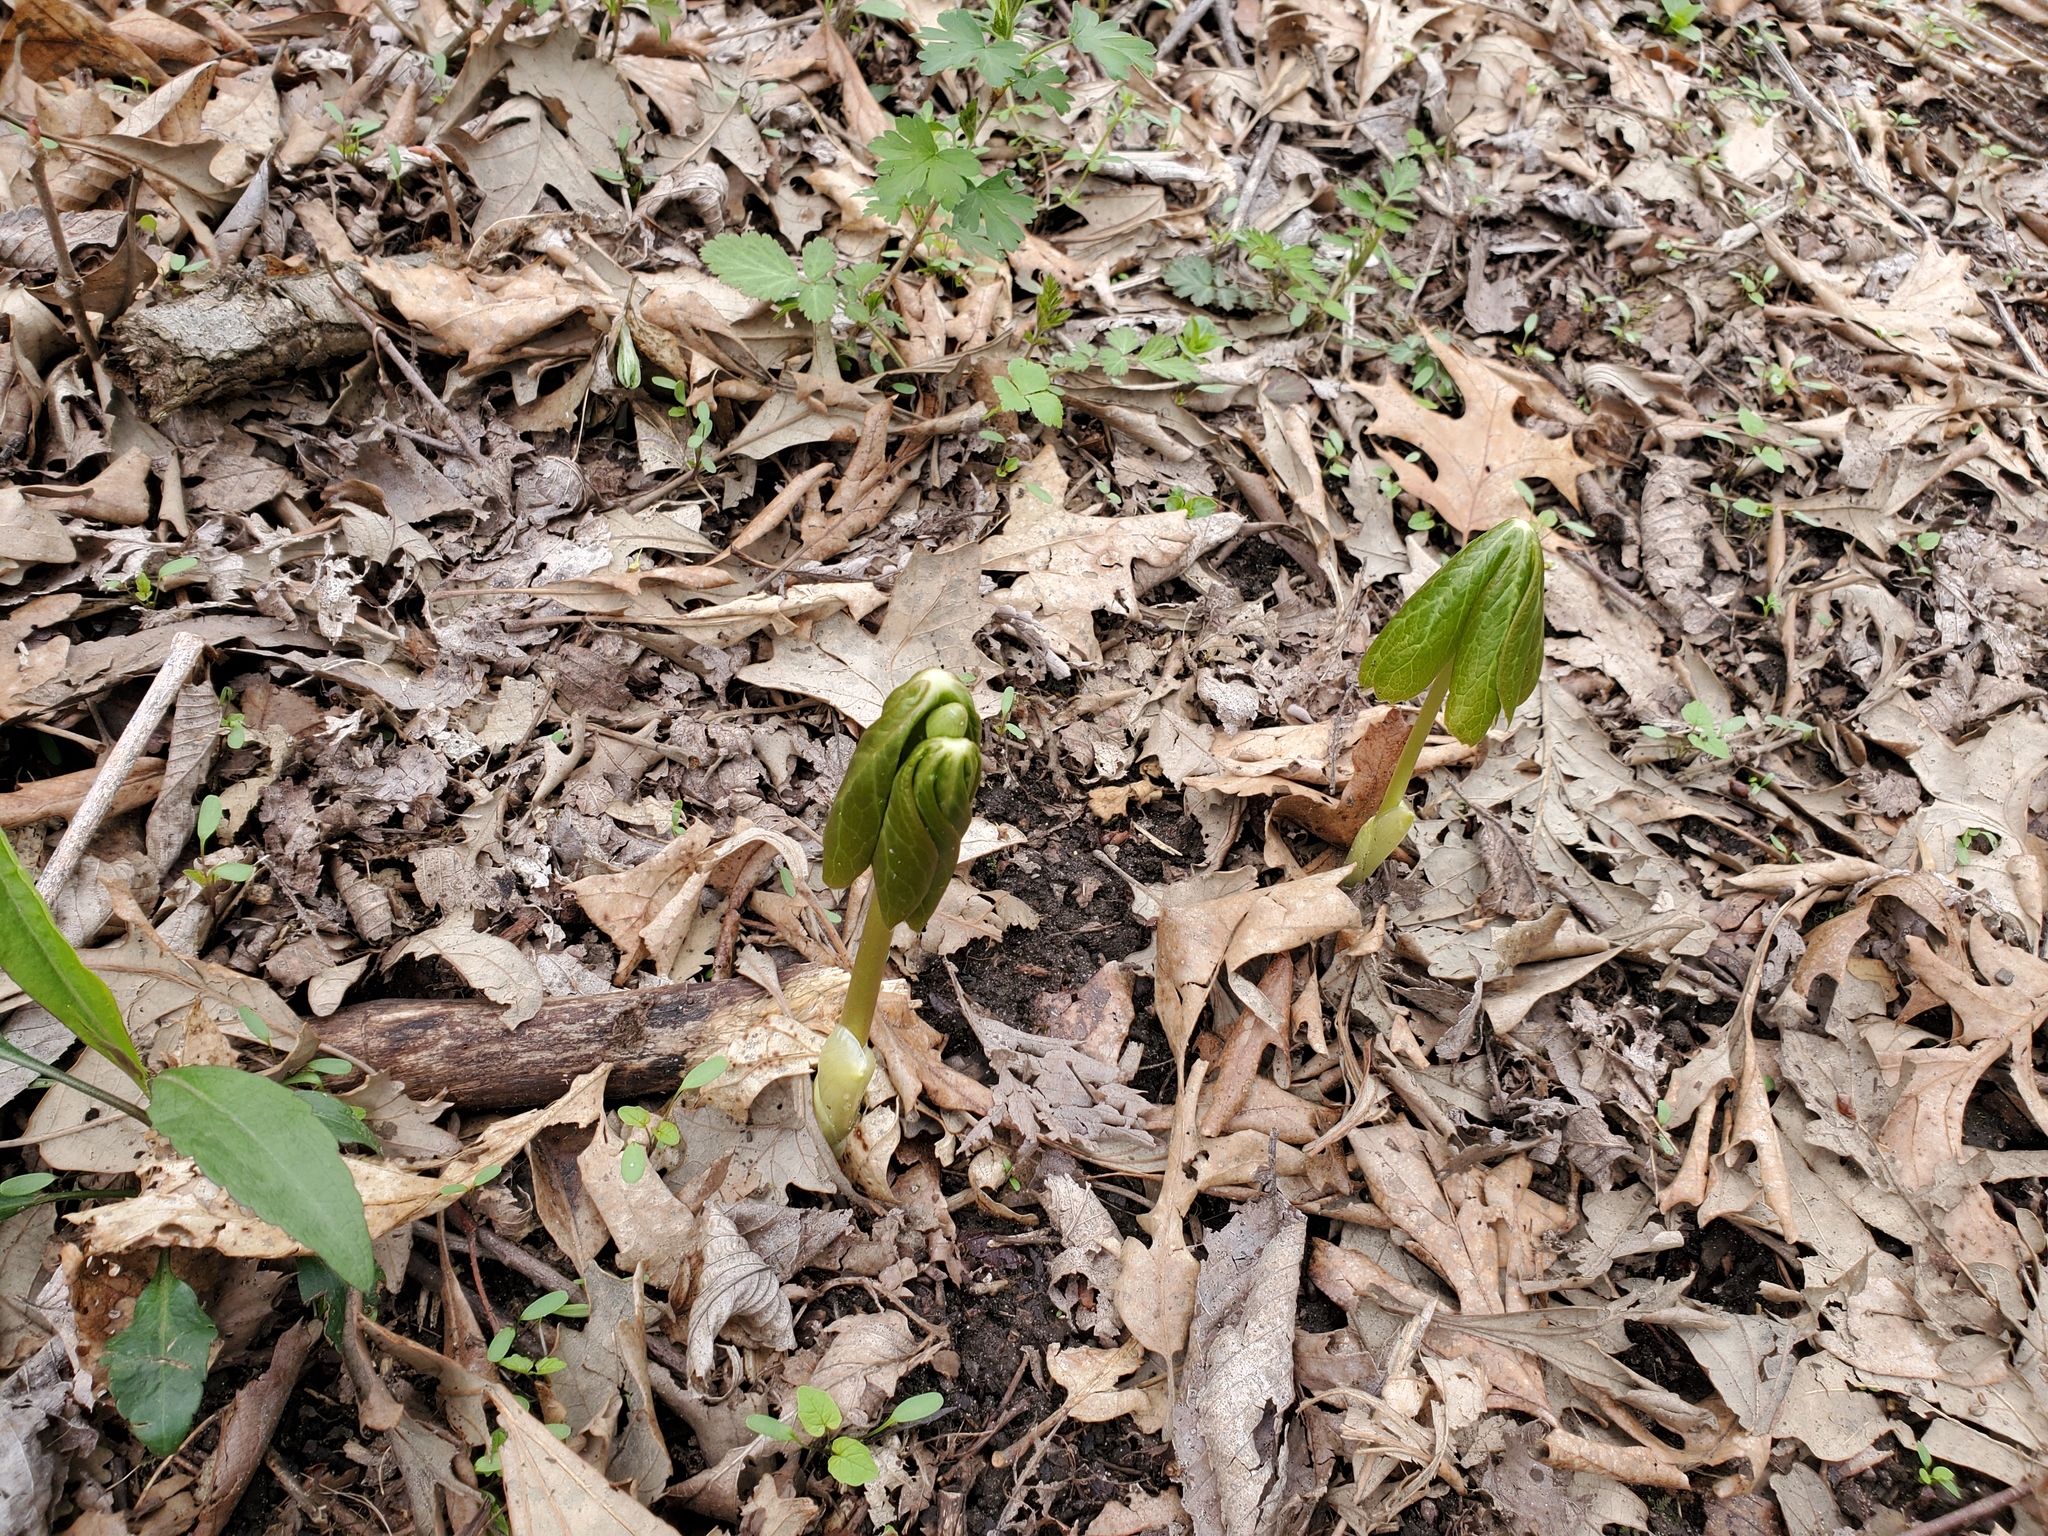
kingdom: Plantae
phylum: Tracheophyta
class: Magnoliopsida
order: Ranunculales
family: Berberidaceae
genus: Podophyllum
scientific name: Podophyllum peltatum
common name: Wild mandrake
